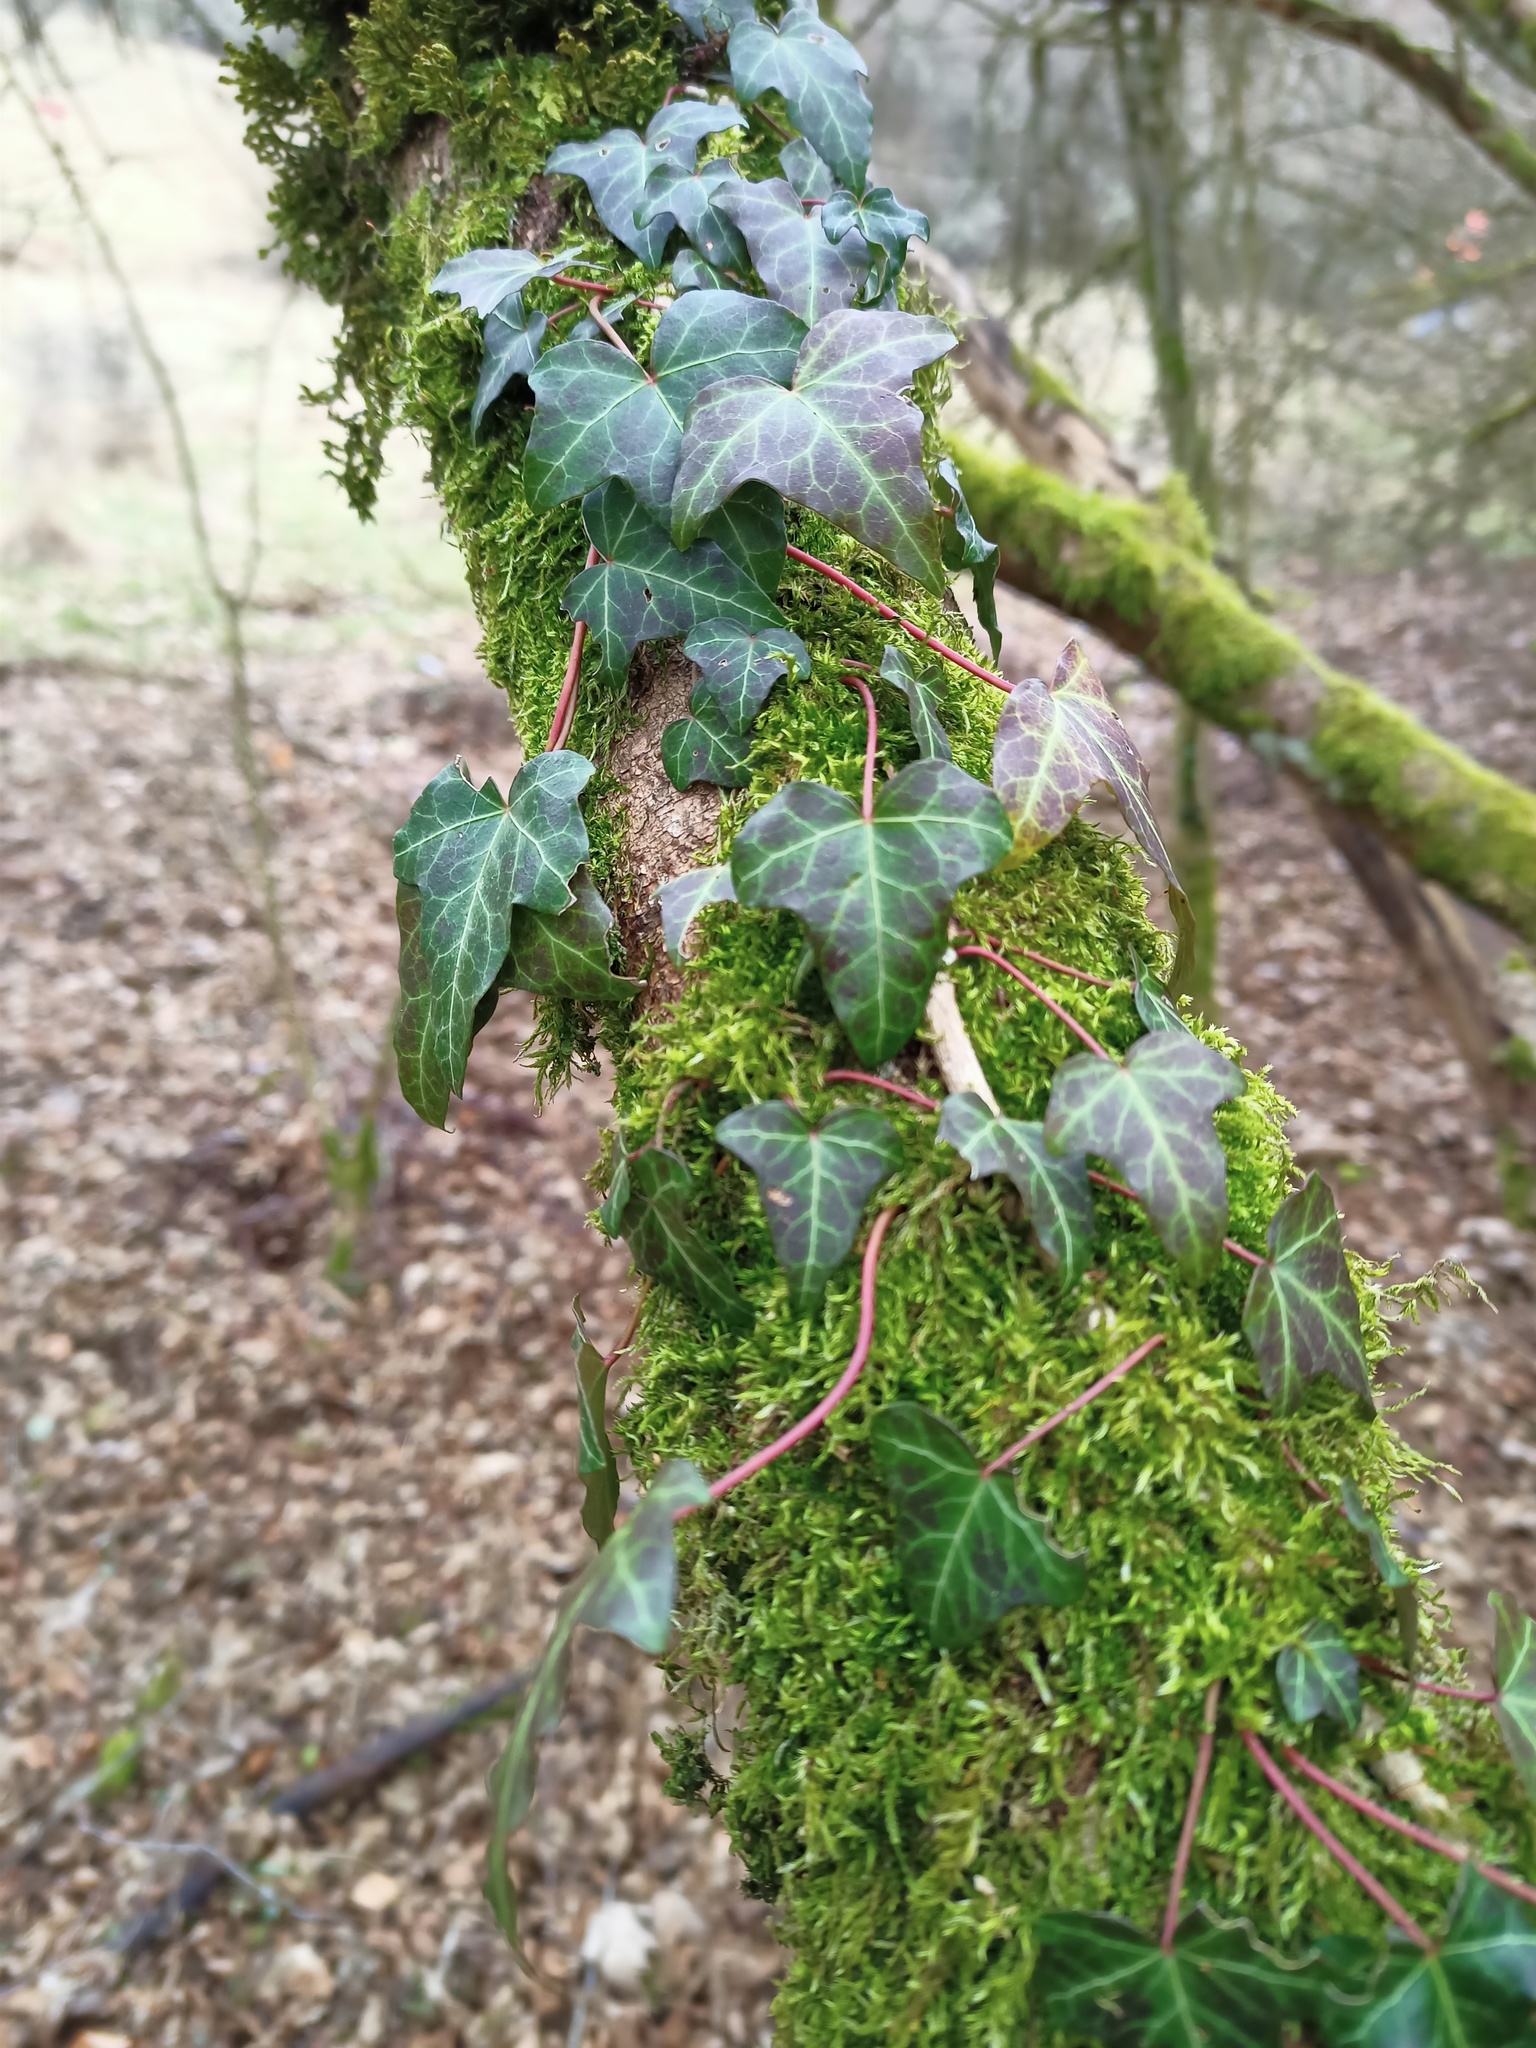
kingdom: Plantae
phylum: Tracheophyta
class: Magnoliopsida
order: Apiales
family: Araliaceae
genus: Hedera
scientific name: Hedera helix
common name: Ivy
